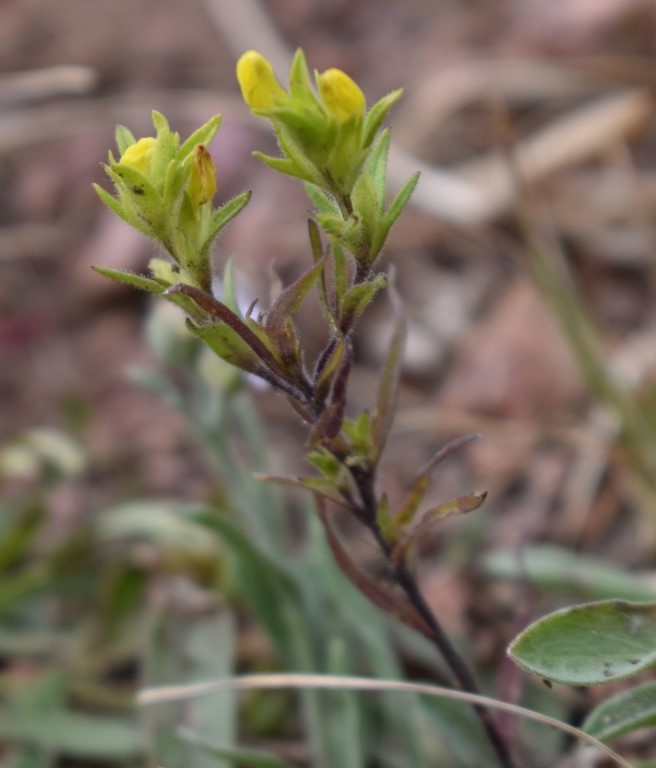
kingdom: Plantae
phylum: Tracheophyta
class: Magnoliopsida
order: Lamiales
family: Orobanchaceae
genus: Orthocarpus
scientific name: Orthocarpus luteus
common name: Golden-tongue owl's-clover
